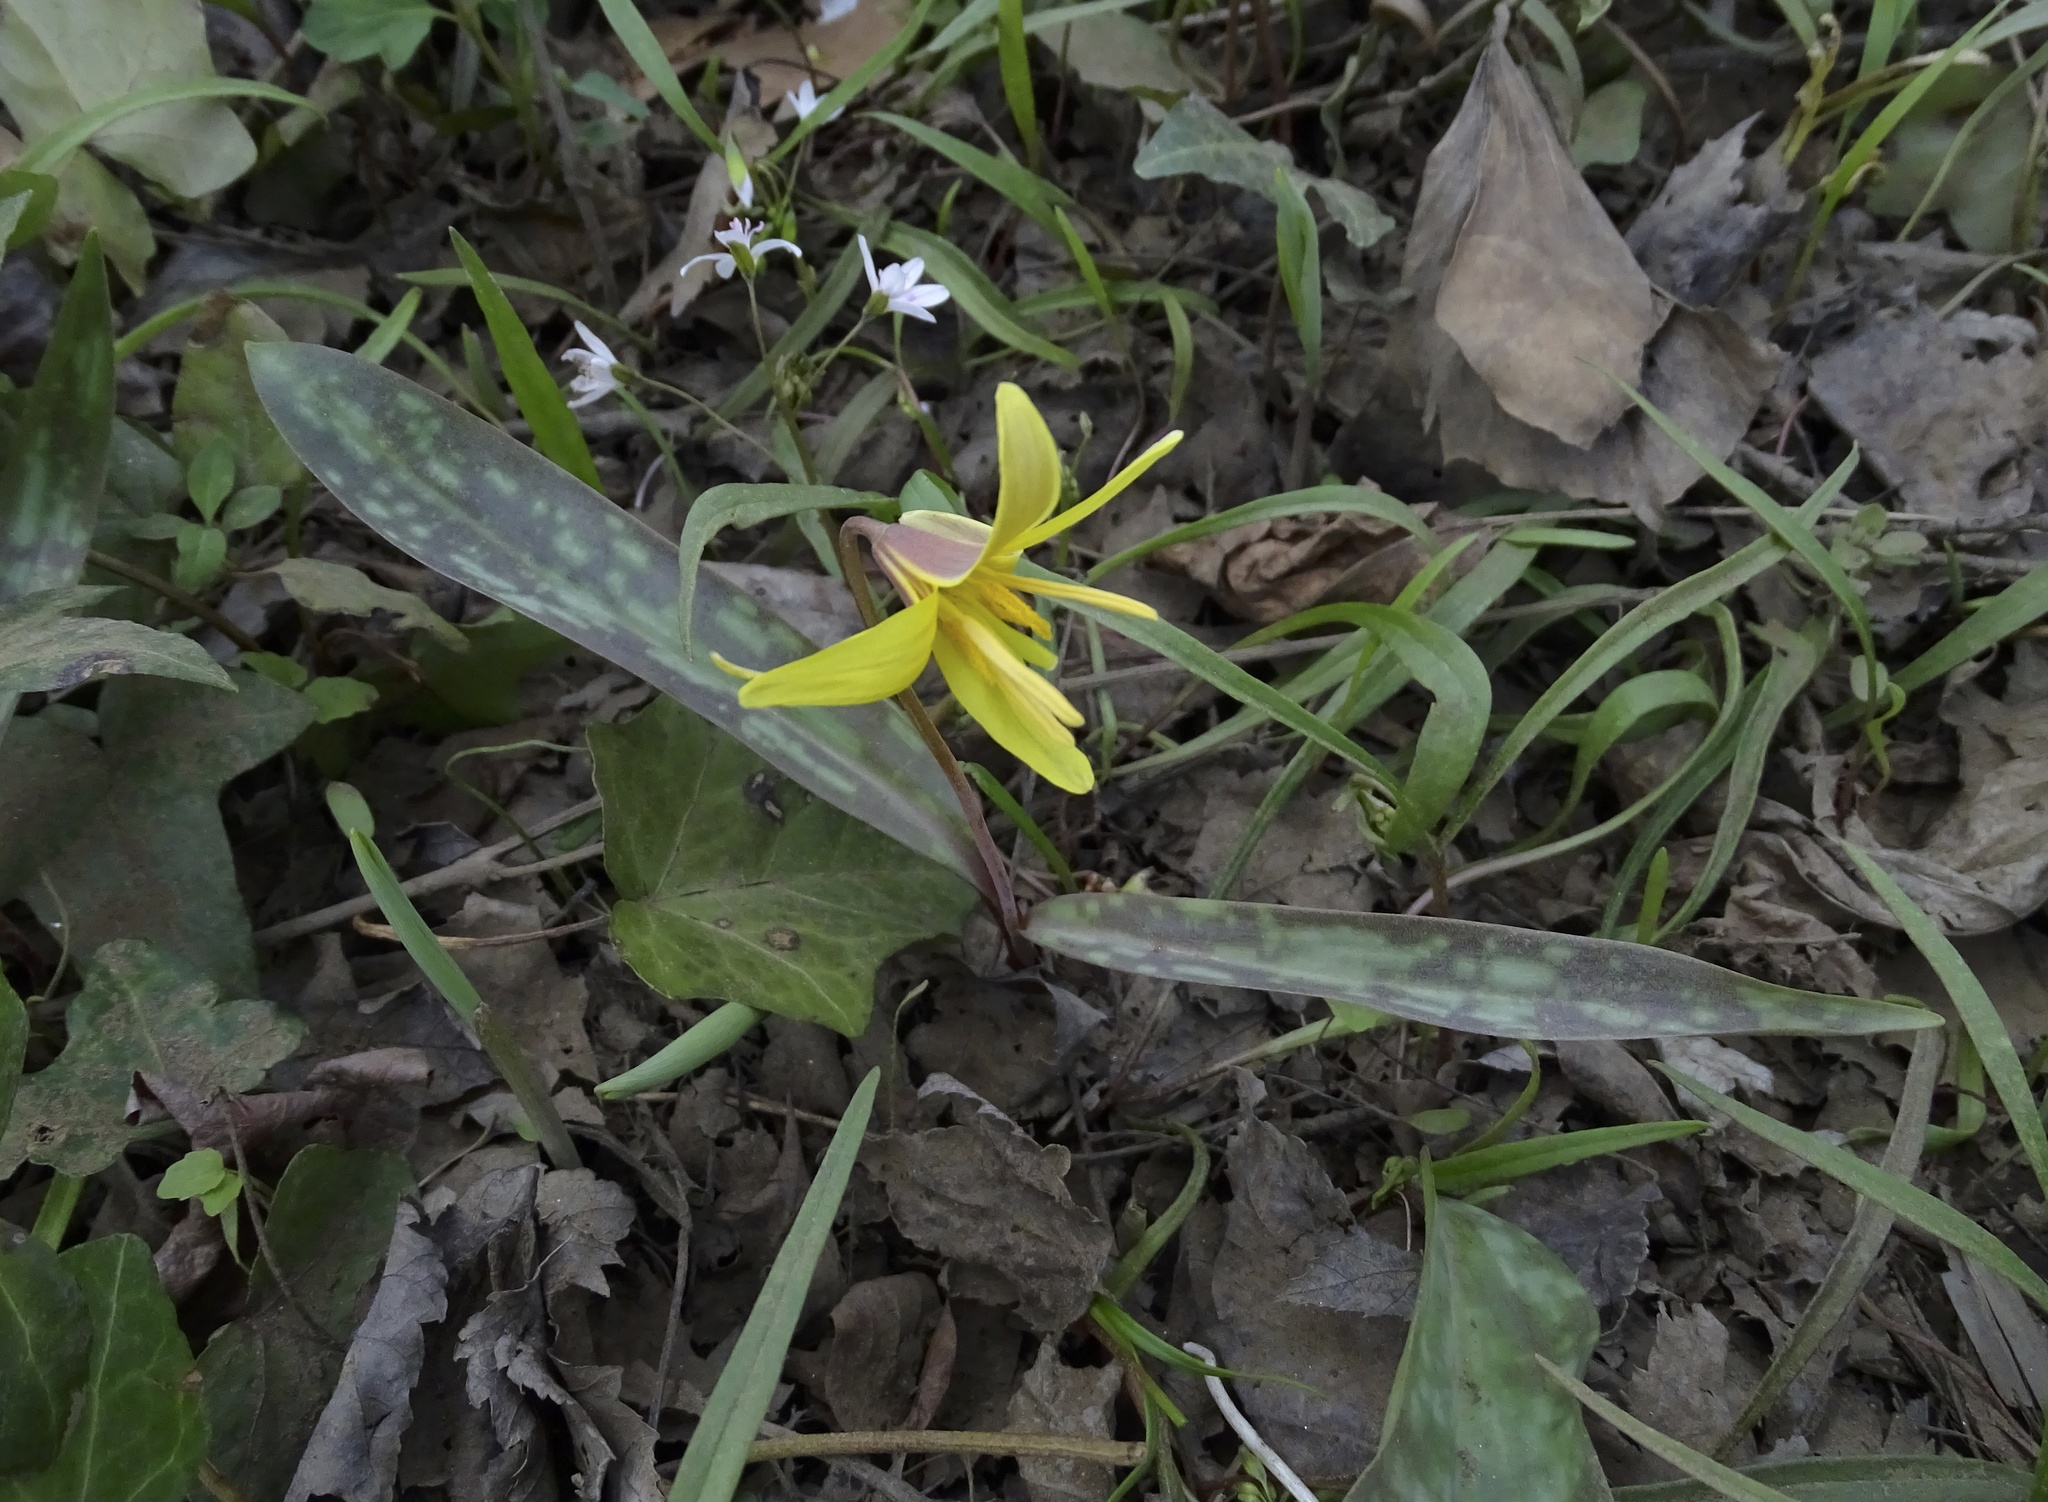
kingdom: Plantae
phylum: Tracheophyta
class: Liliopsida
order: Liliales
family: Liliaceae
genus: Erythronium
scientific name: Erythronium americanum
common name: Yellow adder's-tongue
